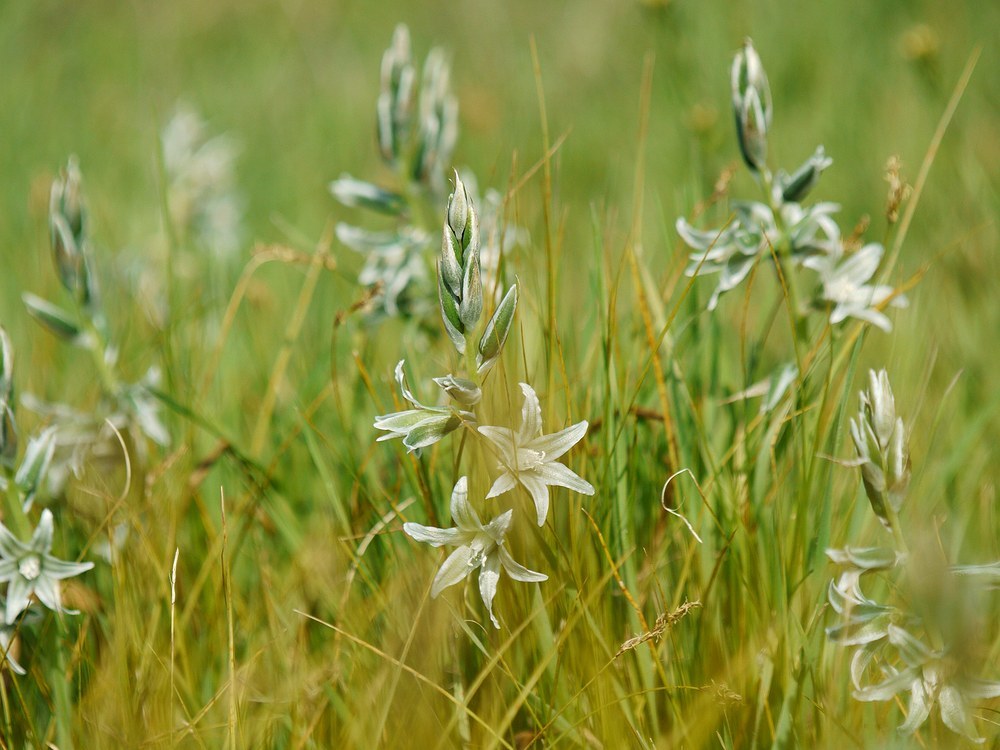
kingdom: Plantae
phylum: Tracheophyta
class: Liliopsida
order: Asparagales
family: Asparagaceae
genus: Ornithogalum
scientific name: Ornithogalum boucheanum
